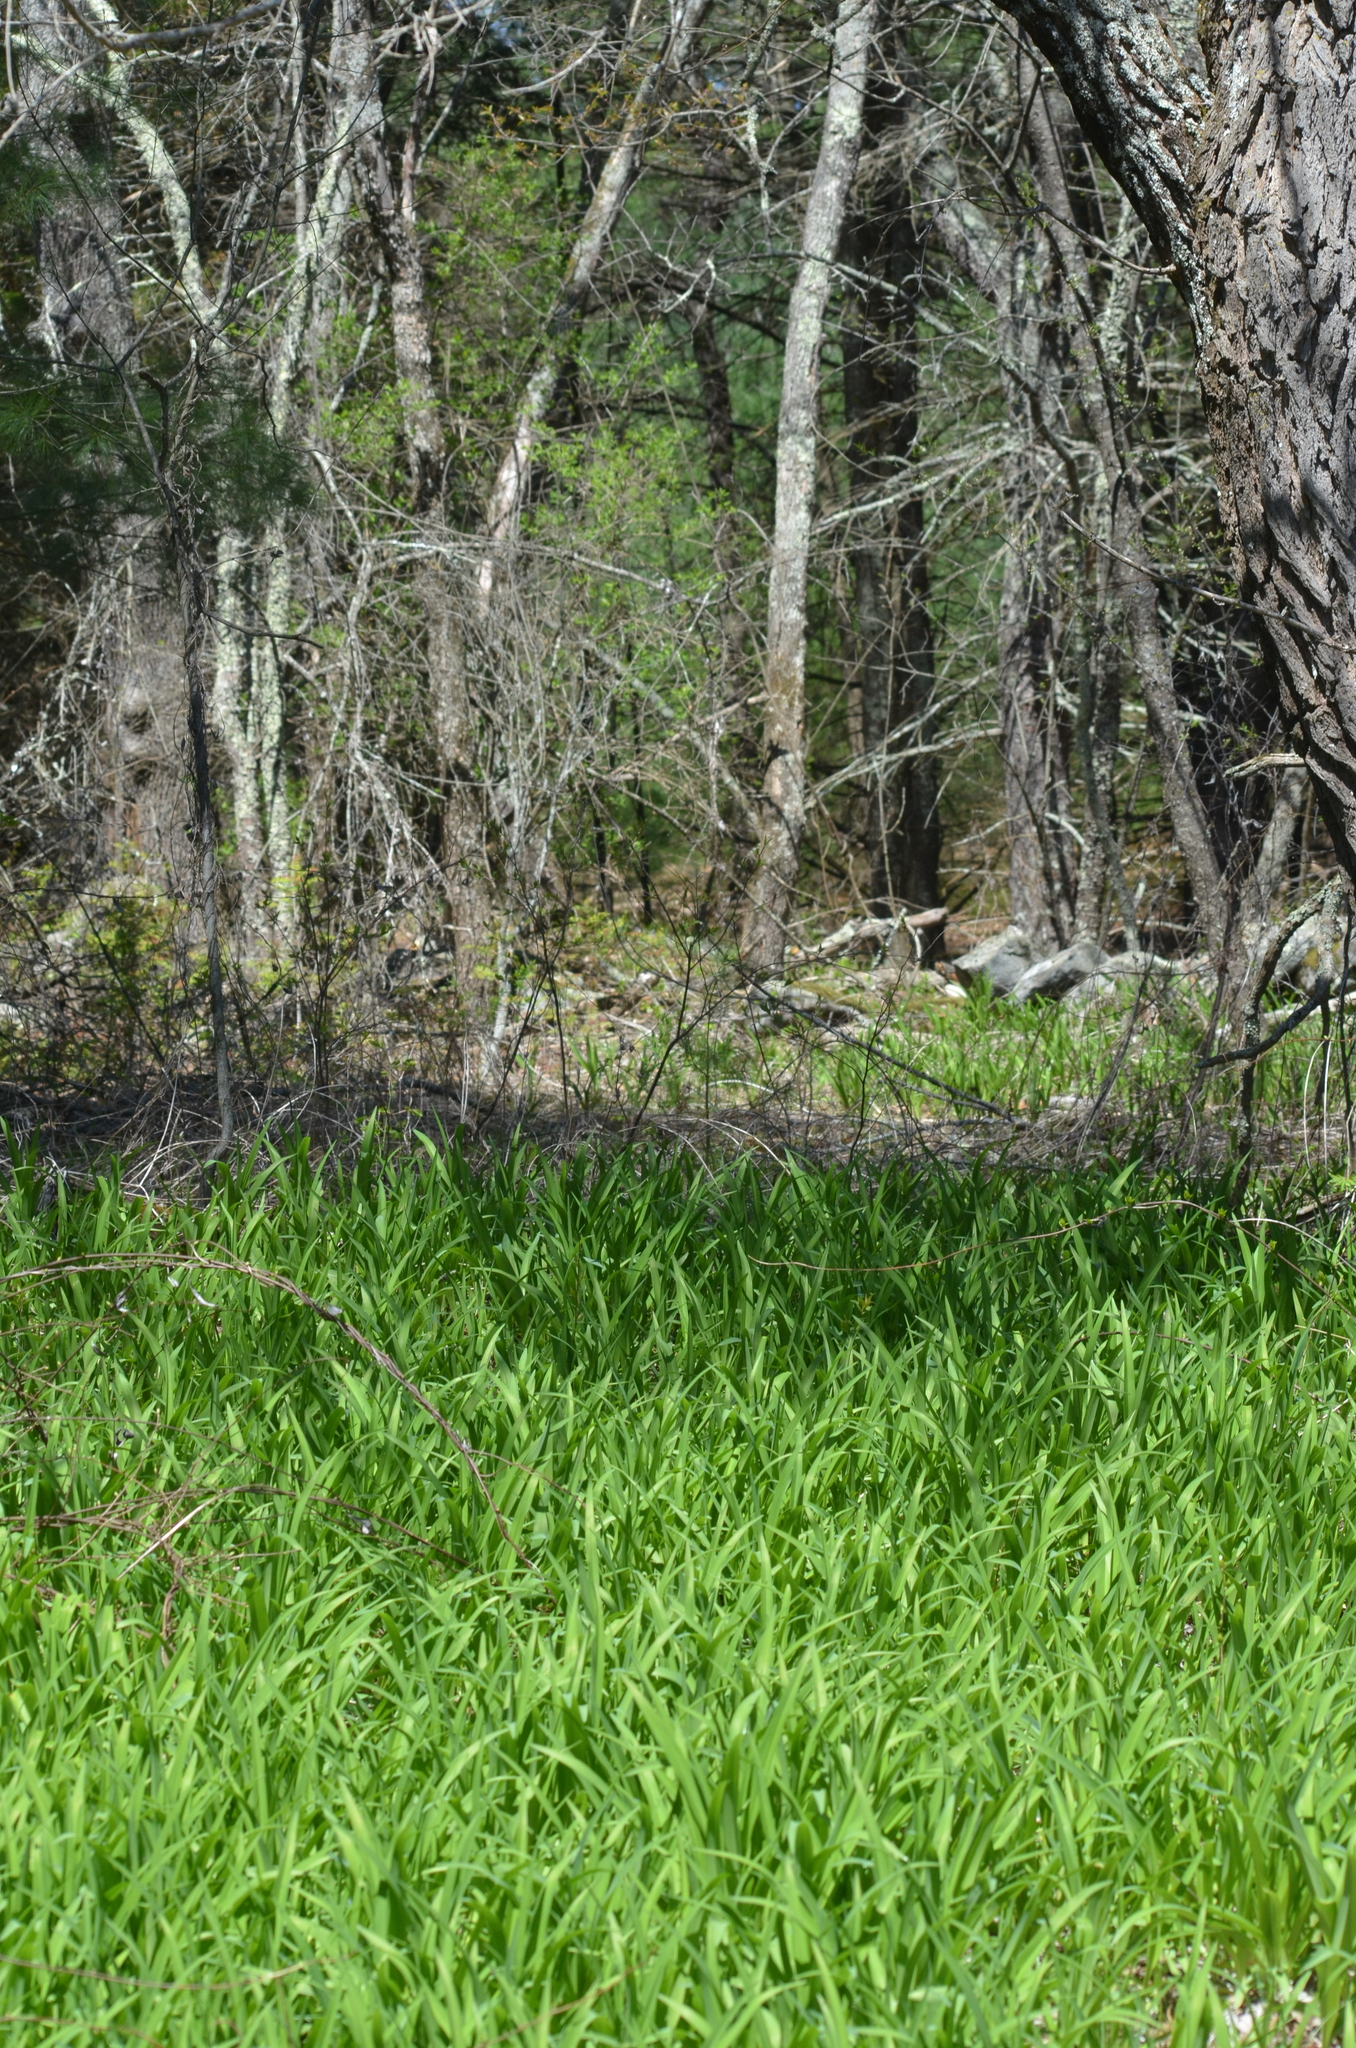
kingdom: Plantae
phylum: Tracheophyta
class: Liliopsida
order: Asparagales
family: Asphodelaceae
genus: Hemerocallis
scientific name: Hemerocallis fulva
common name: Orange day-lily
